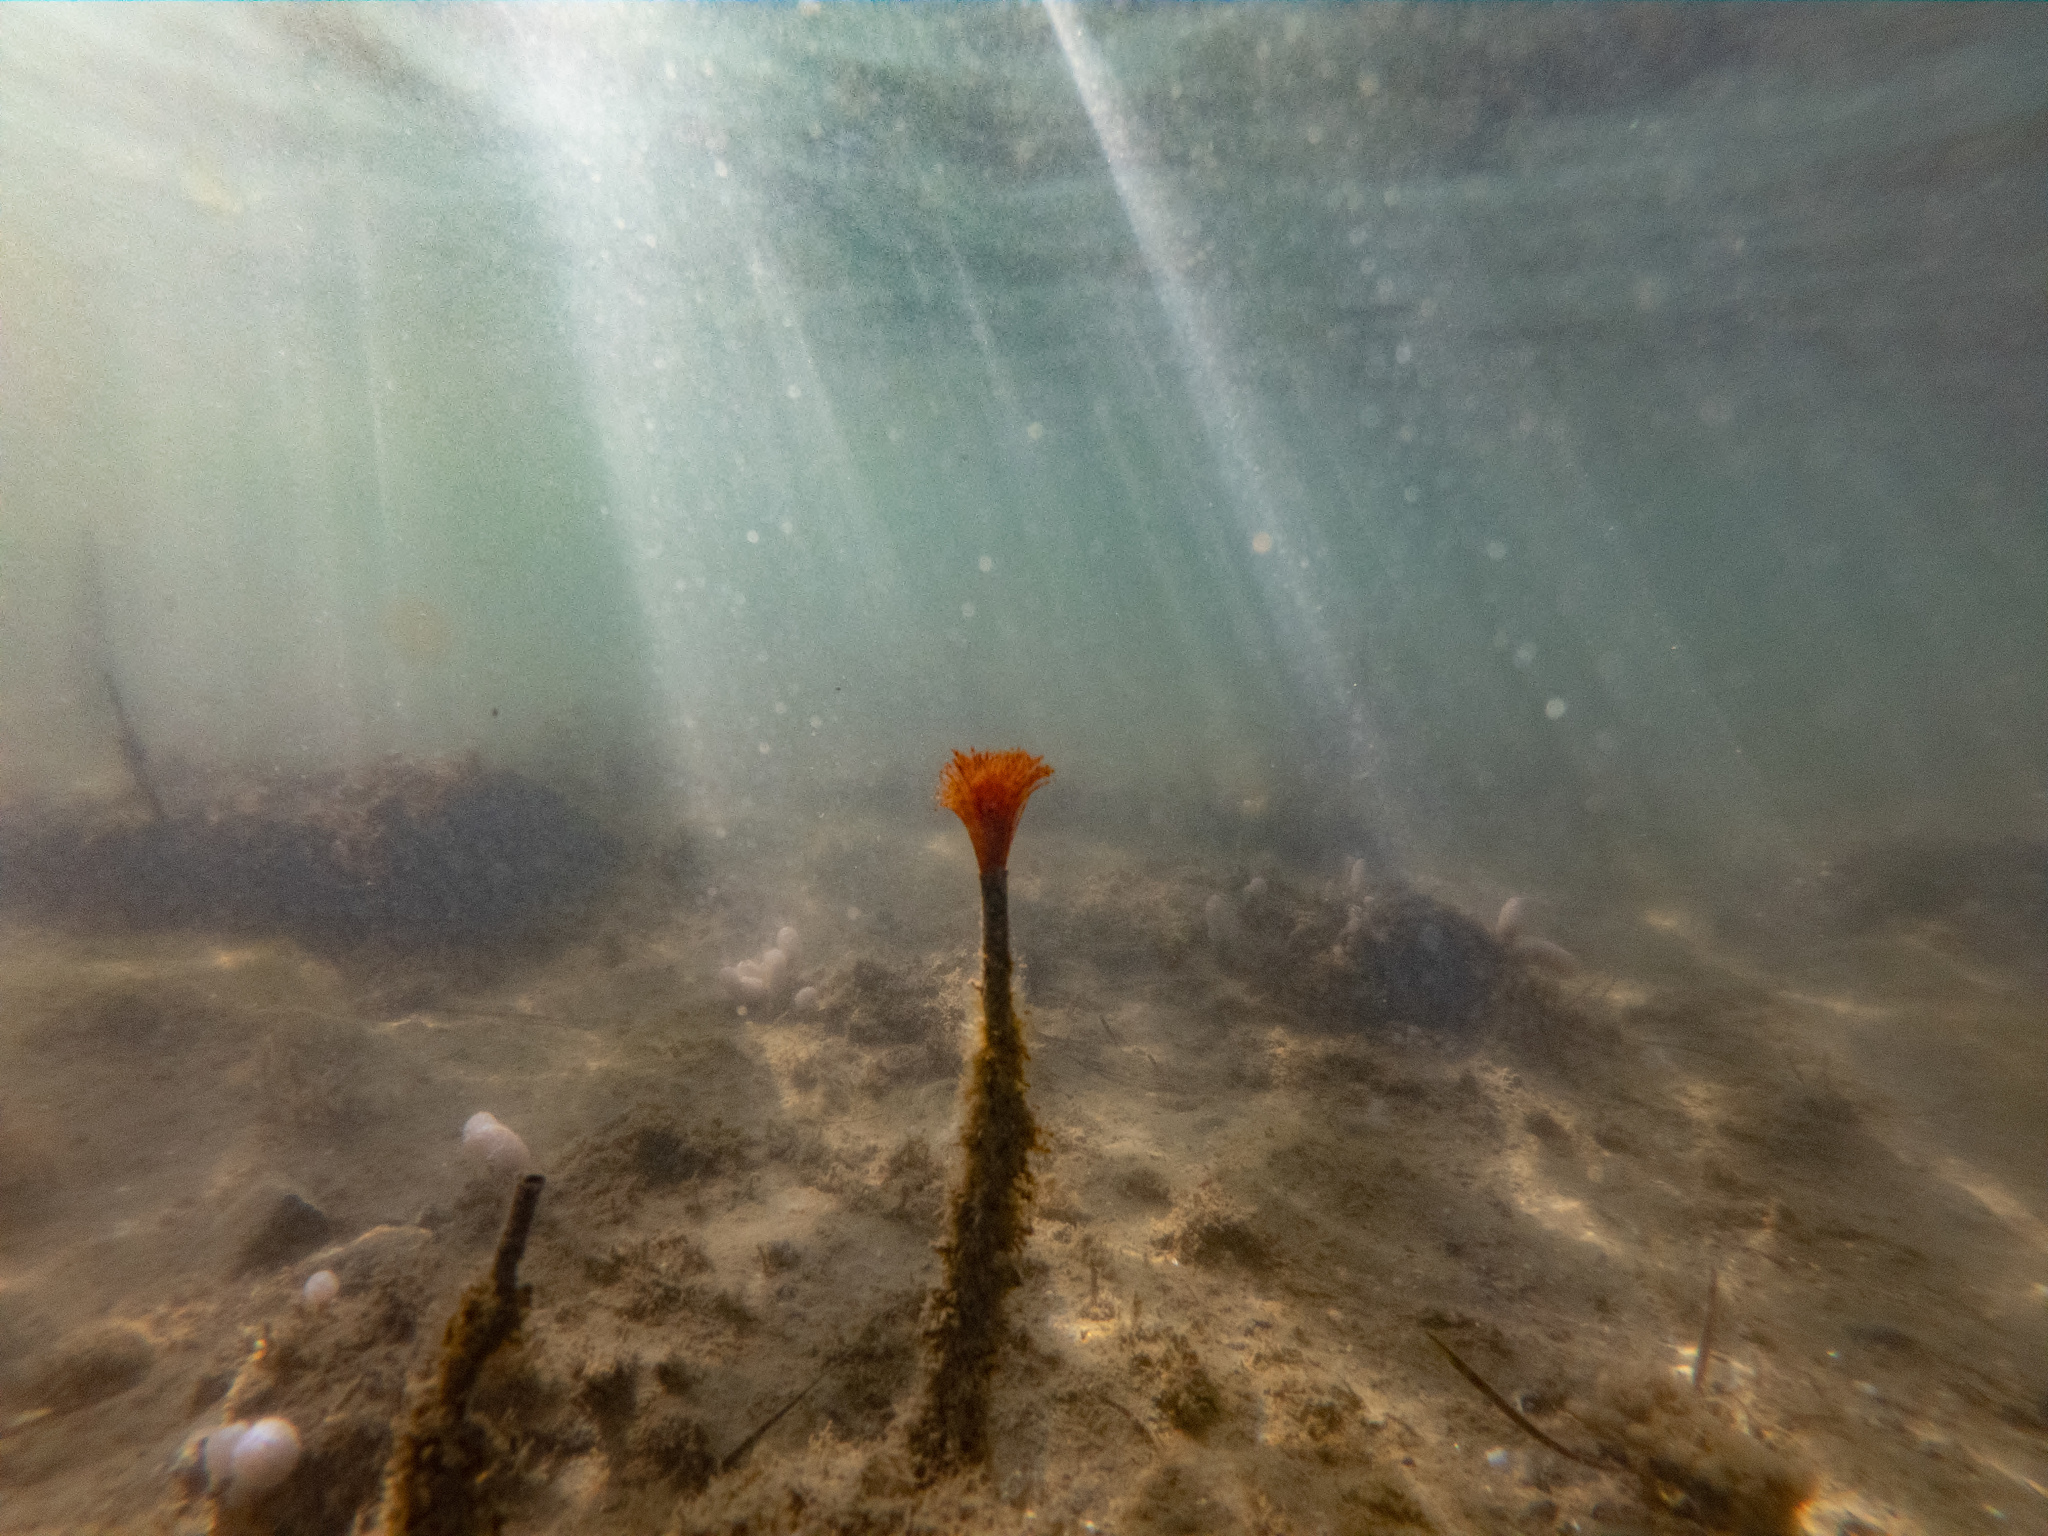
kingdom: Animalia
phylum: Annelida
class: Polychaeta
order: Sabellida
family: Sabellidae
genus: Sabella
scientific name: Sabella spallanzanii
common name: Feather duster worm
